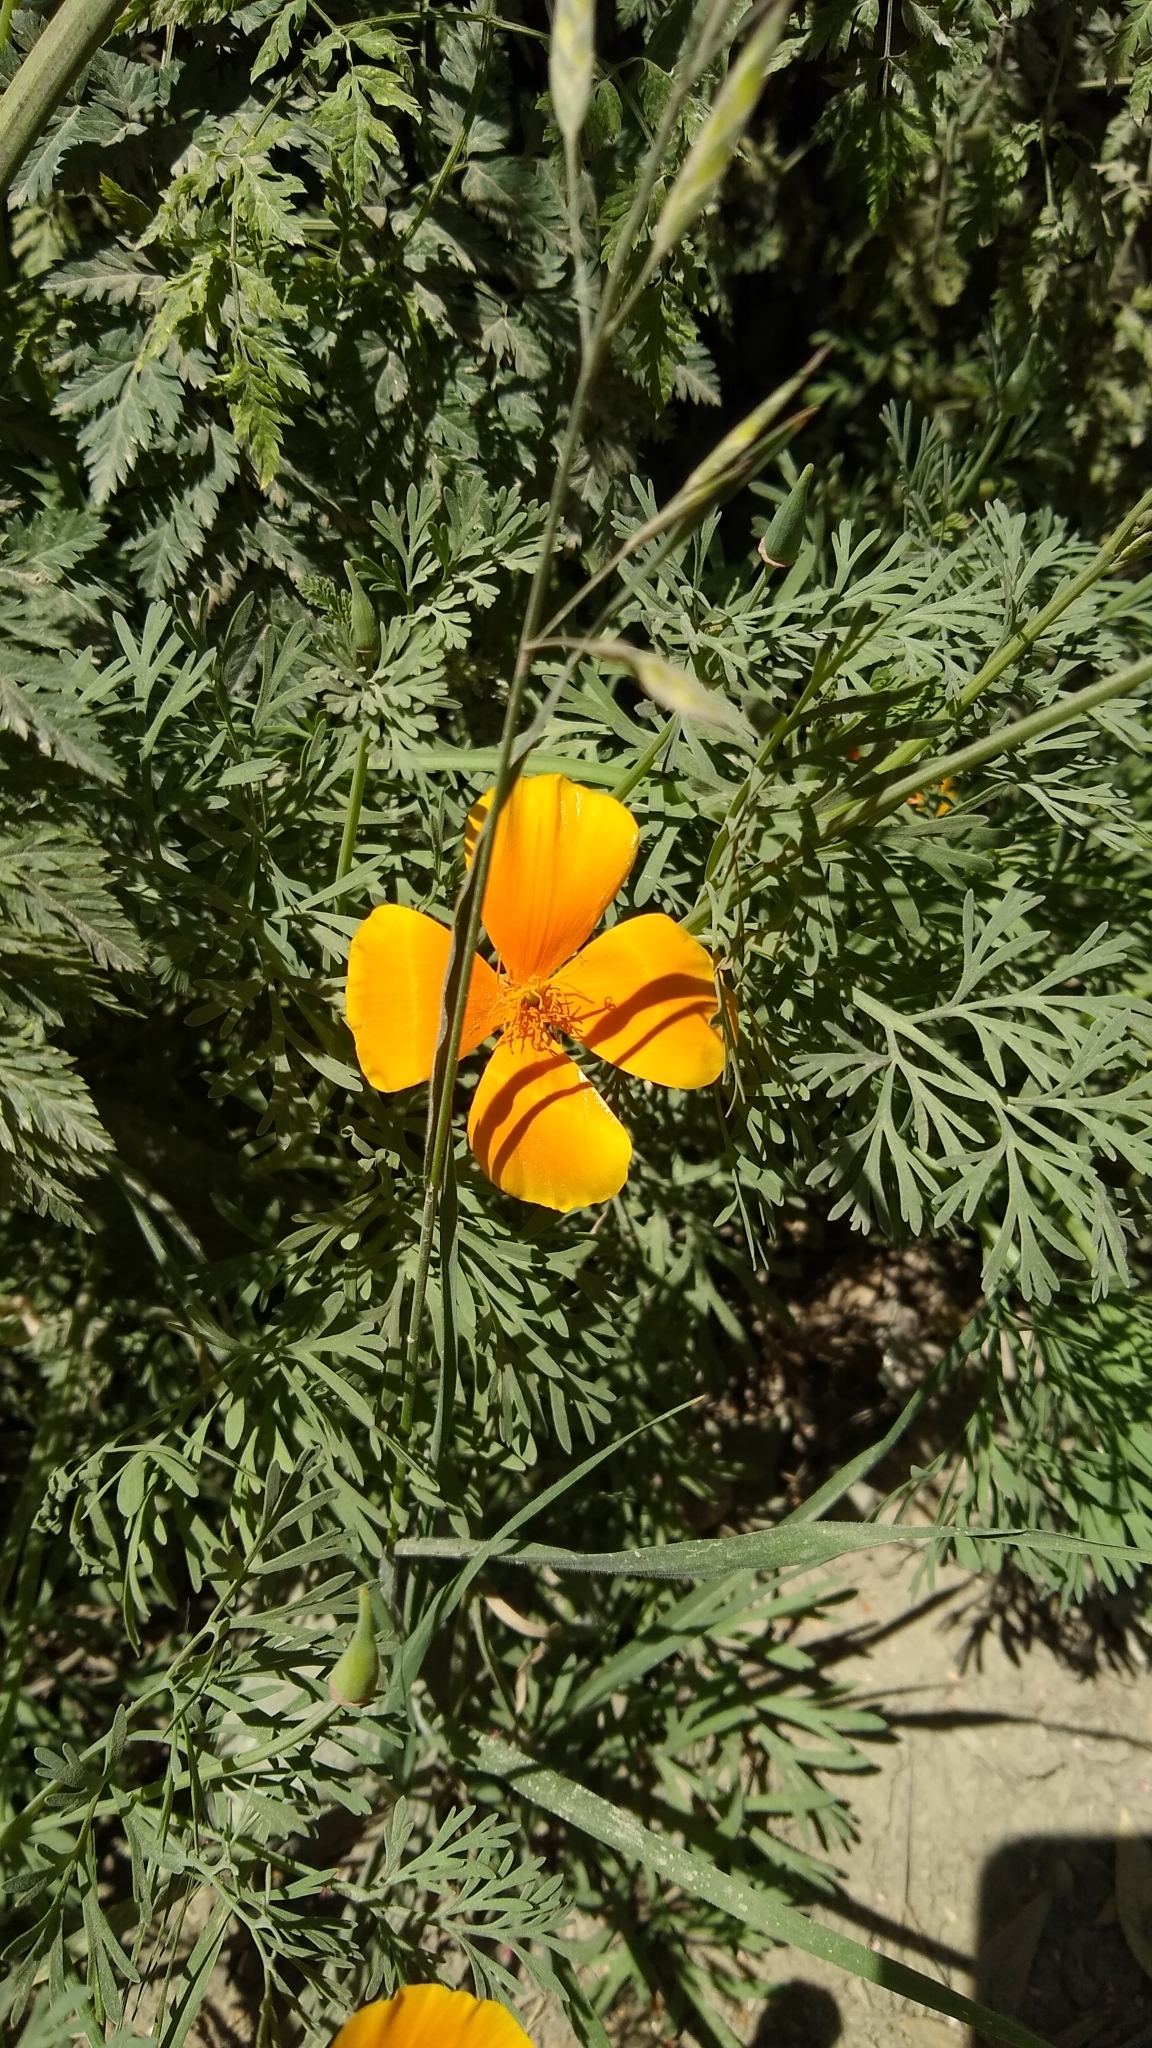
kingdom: Plantae
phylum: Tracheophyta
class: Magnoliopsida
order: Ranunculales
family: Papaveraceae
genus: Eschscholzia
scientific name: Eschscholzia californica
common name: California poppy
